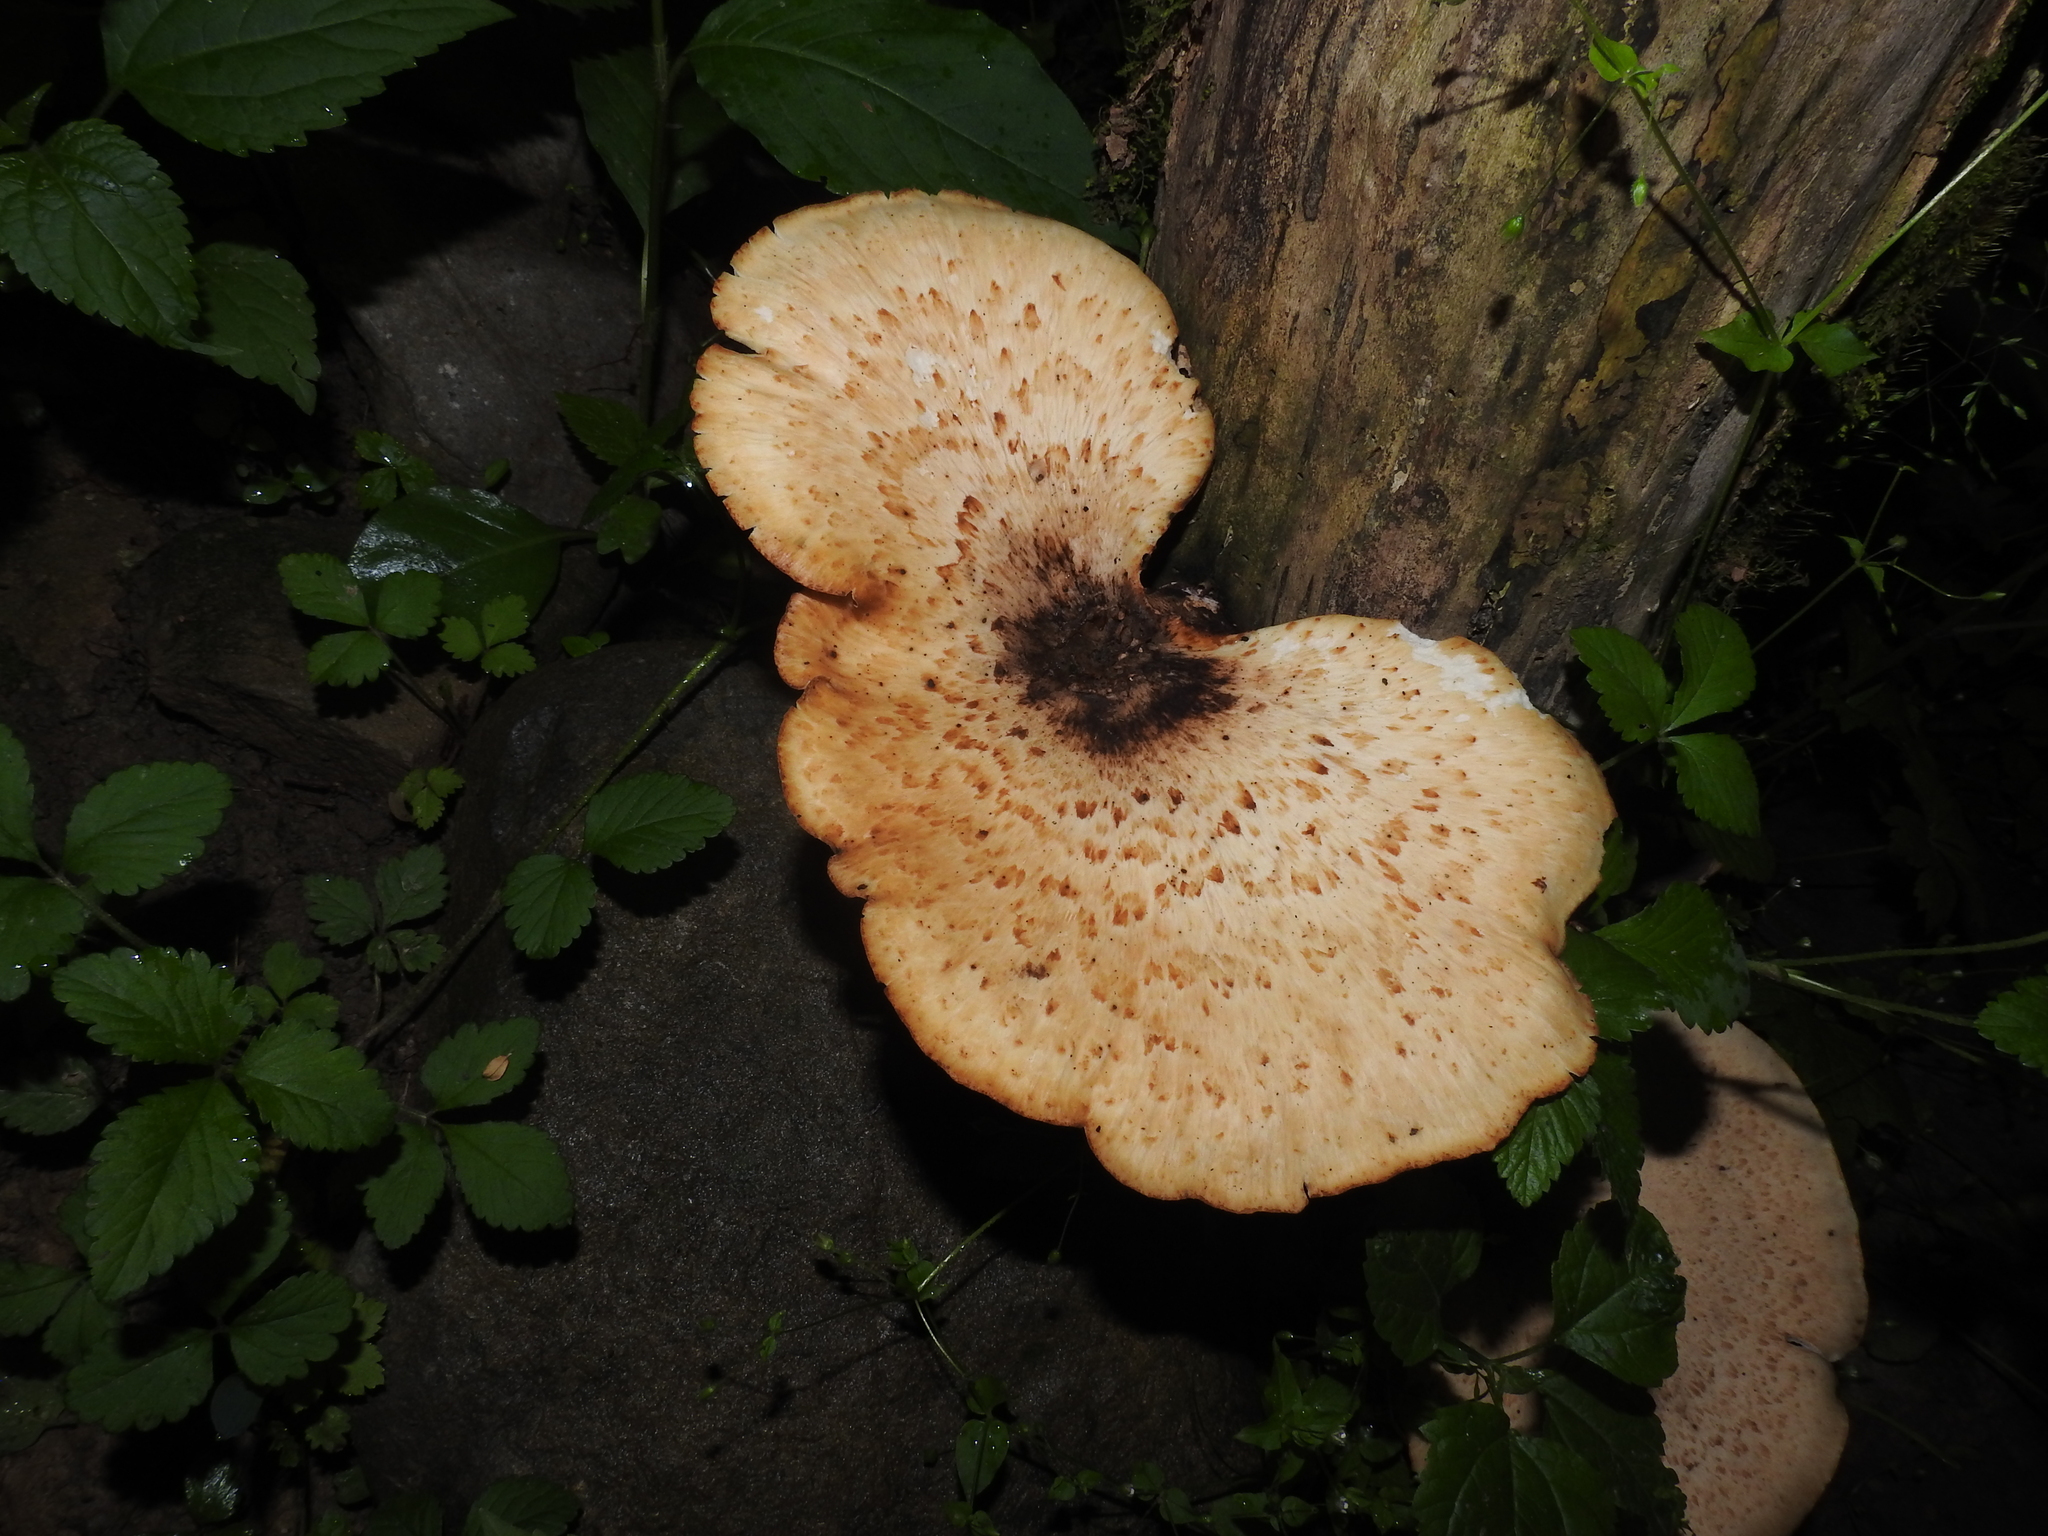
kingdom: Fungi
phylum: Basidiomycota
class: Agaricomycetes
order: Polyporales
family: Polyporaceae
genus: Cerioporus
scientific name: Cerioporus squamosus
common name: Dryad's saddle
